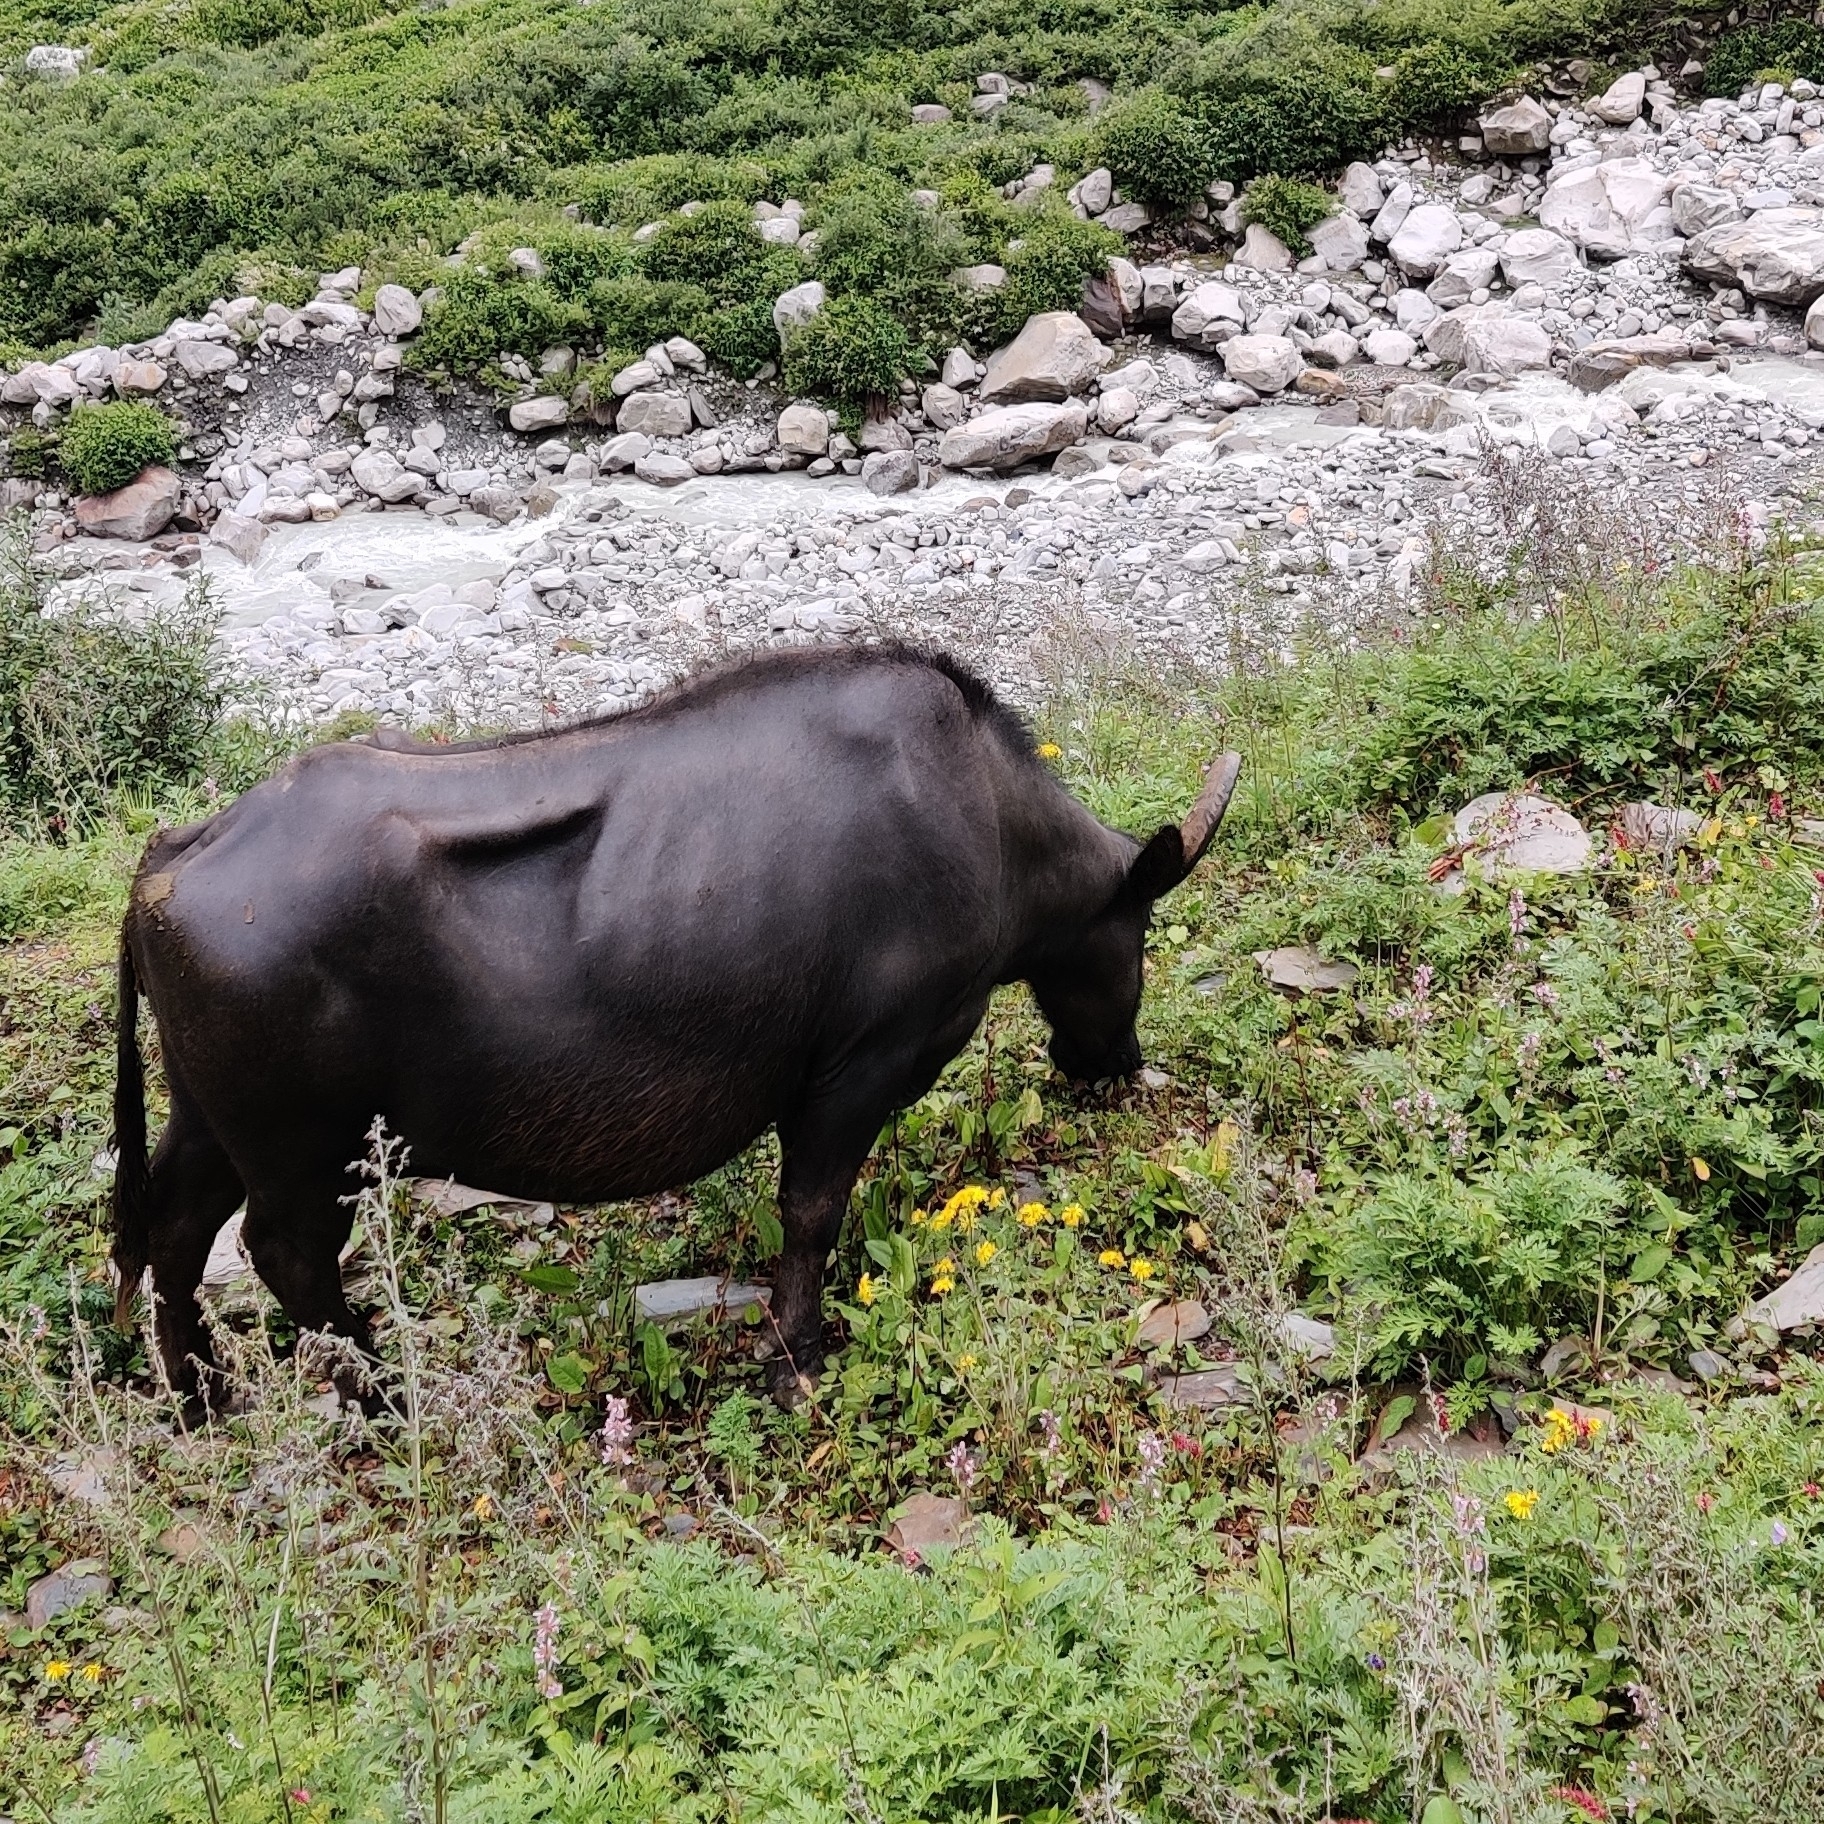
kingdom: Animalia
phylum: Chordata
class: Mammalia
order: Artiodactyla
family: Bovidae
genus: Bubalus
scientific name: Bubalus bubalis
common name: Water buffalo
